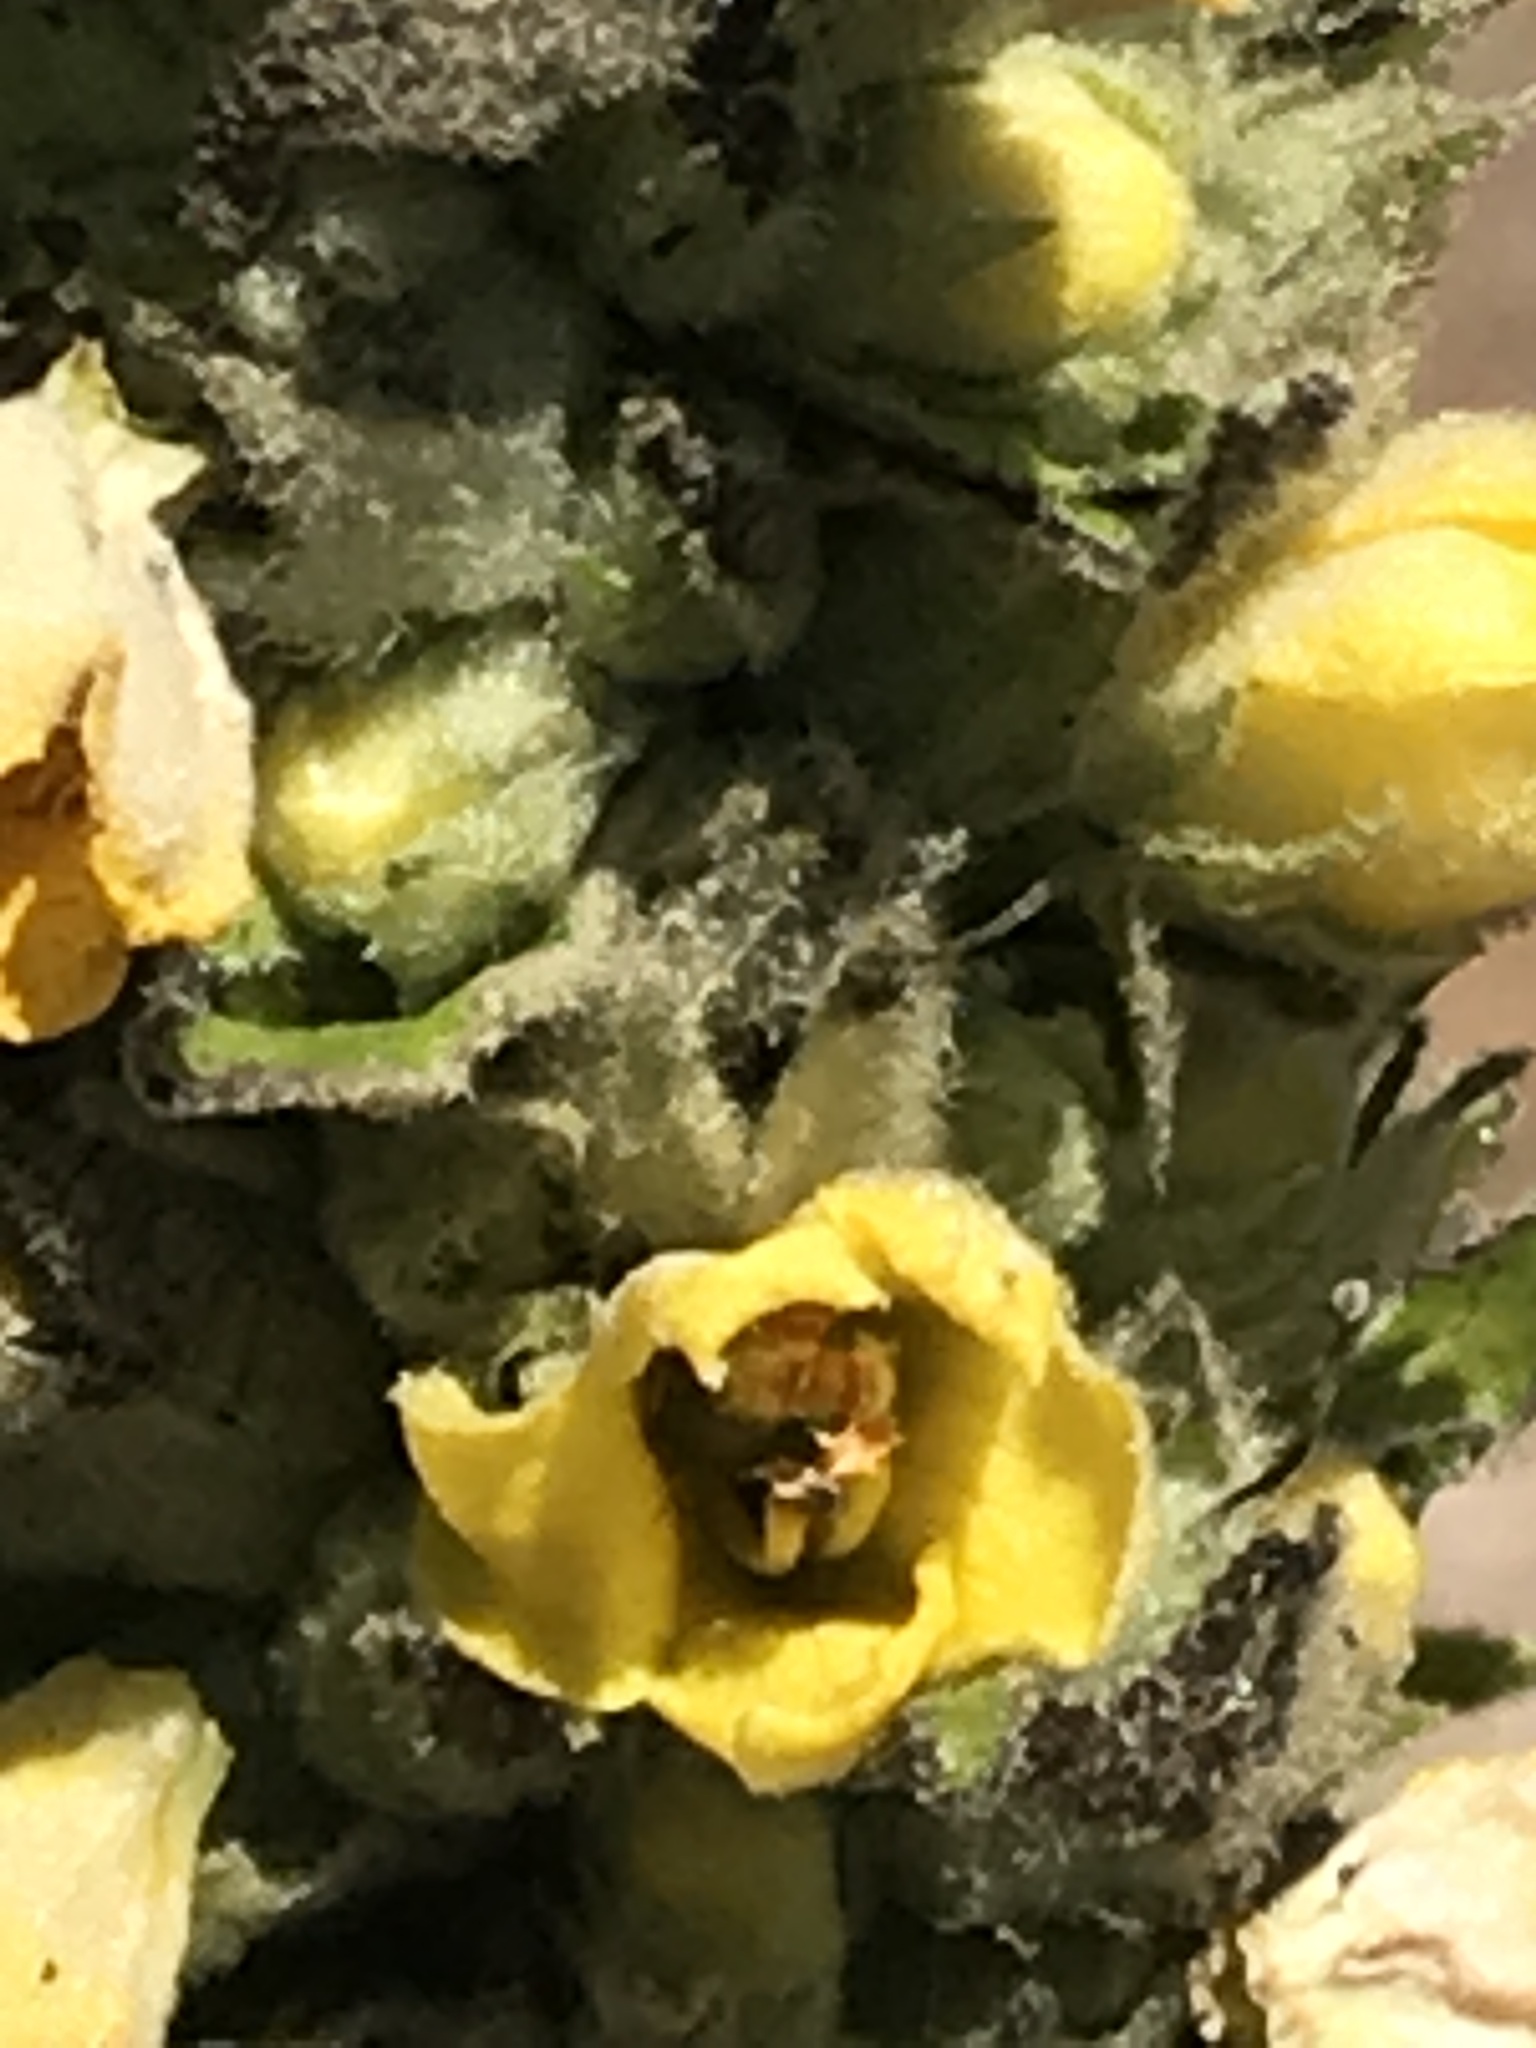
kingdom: Plantae
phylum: Tracheophyta
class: Magnoliopsida
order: Lamiales
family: Scrophulariaceae
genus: Verbascum
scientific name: Verbascum thapsus
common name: Common mullein
